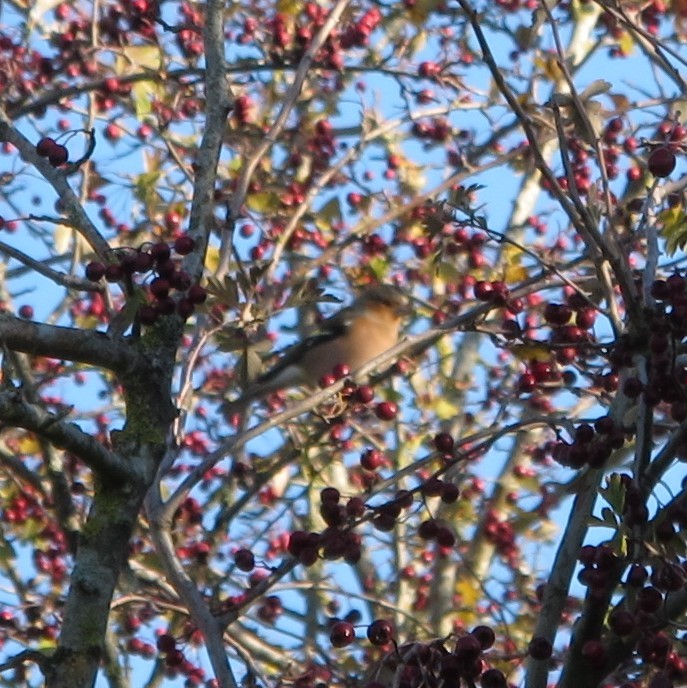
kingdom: Animalia
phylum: Chordata
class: Aves
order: Passeriformes
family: Fringillidae
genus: Fringilla
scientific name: Fringilla coelebs
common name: Common chaffinch
